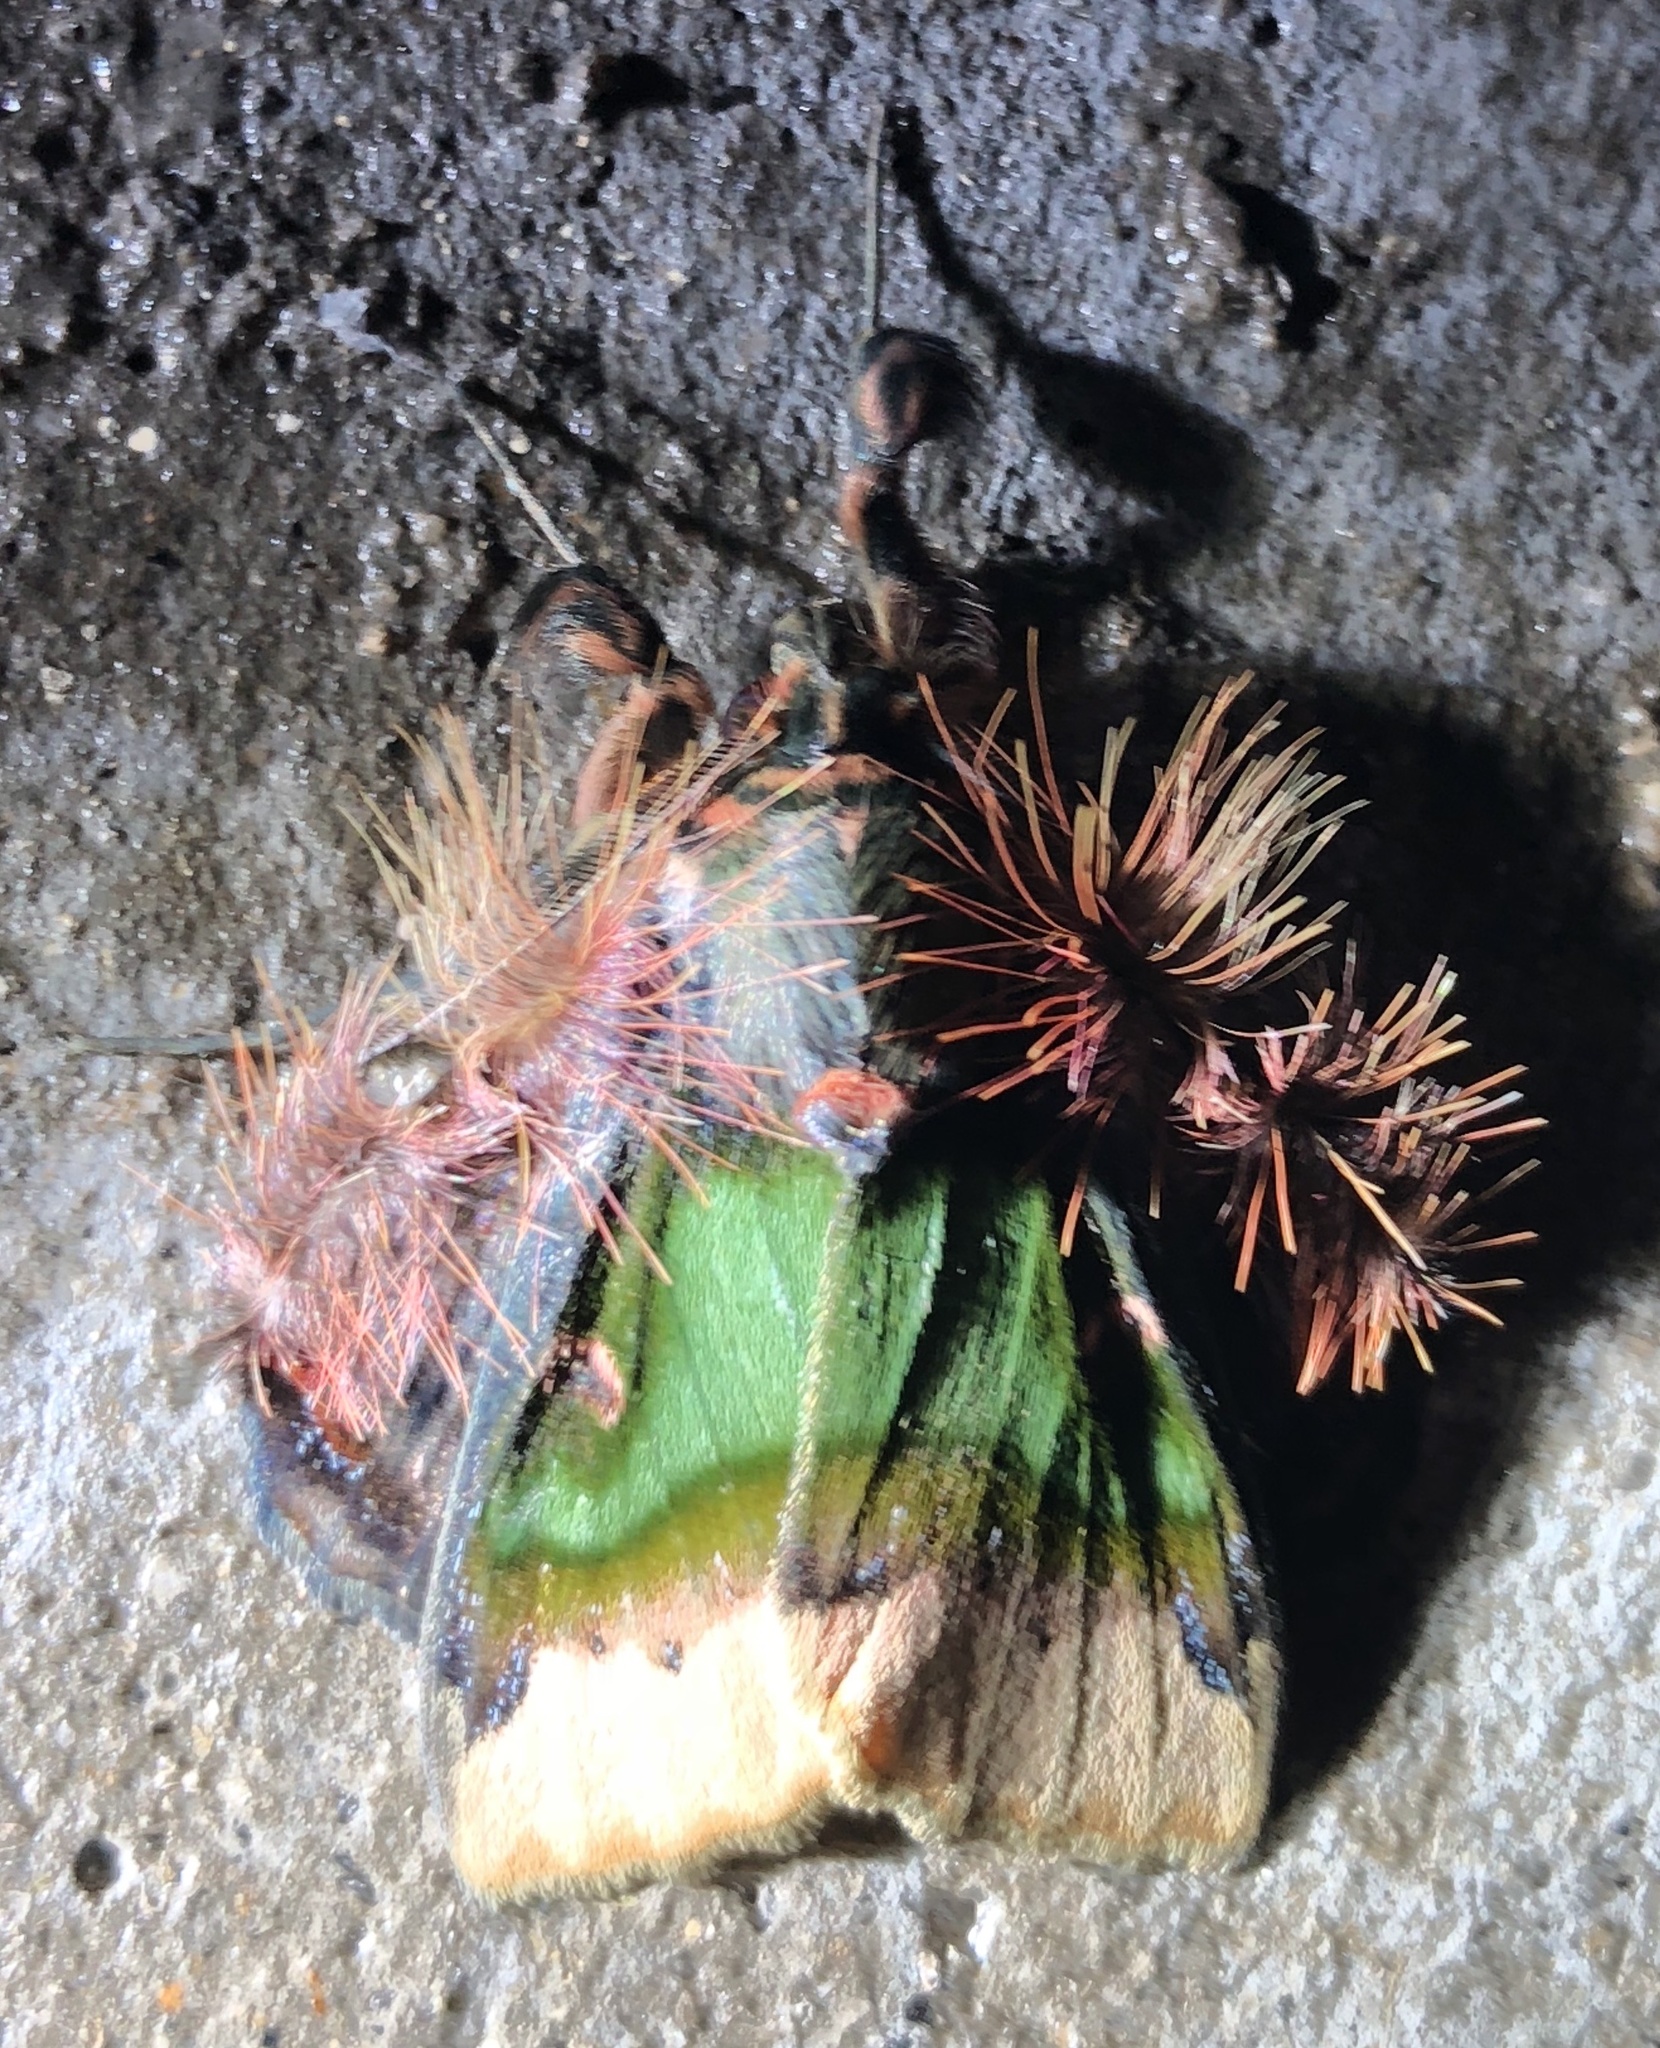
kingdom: Animalia
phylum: Arthropoda
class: Insecta
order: Lepidoptera
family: Erebidae
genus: Ceroctena
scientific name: Ceroctena amynta
